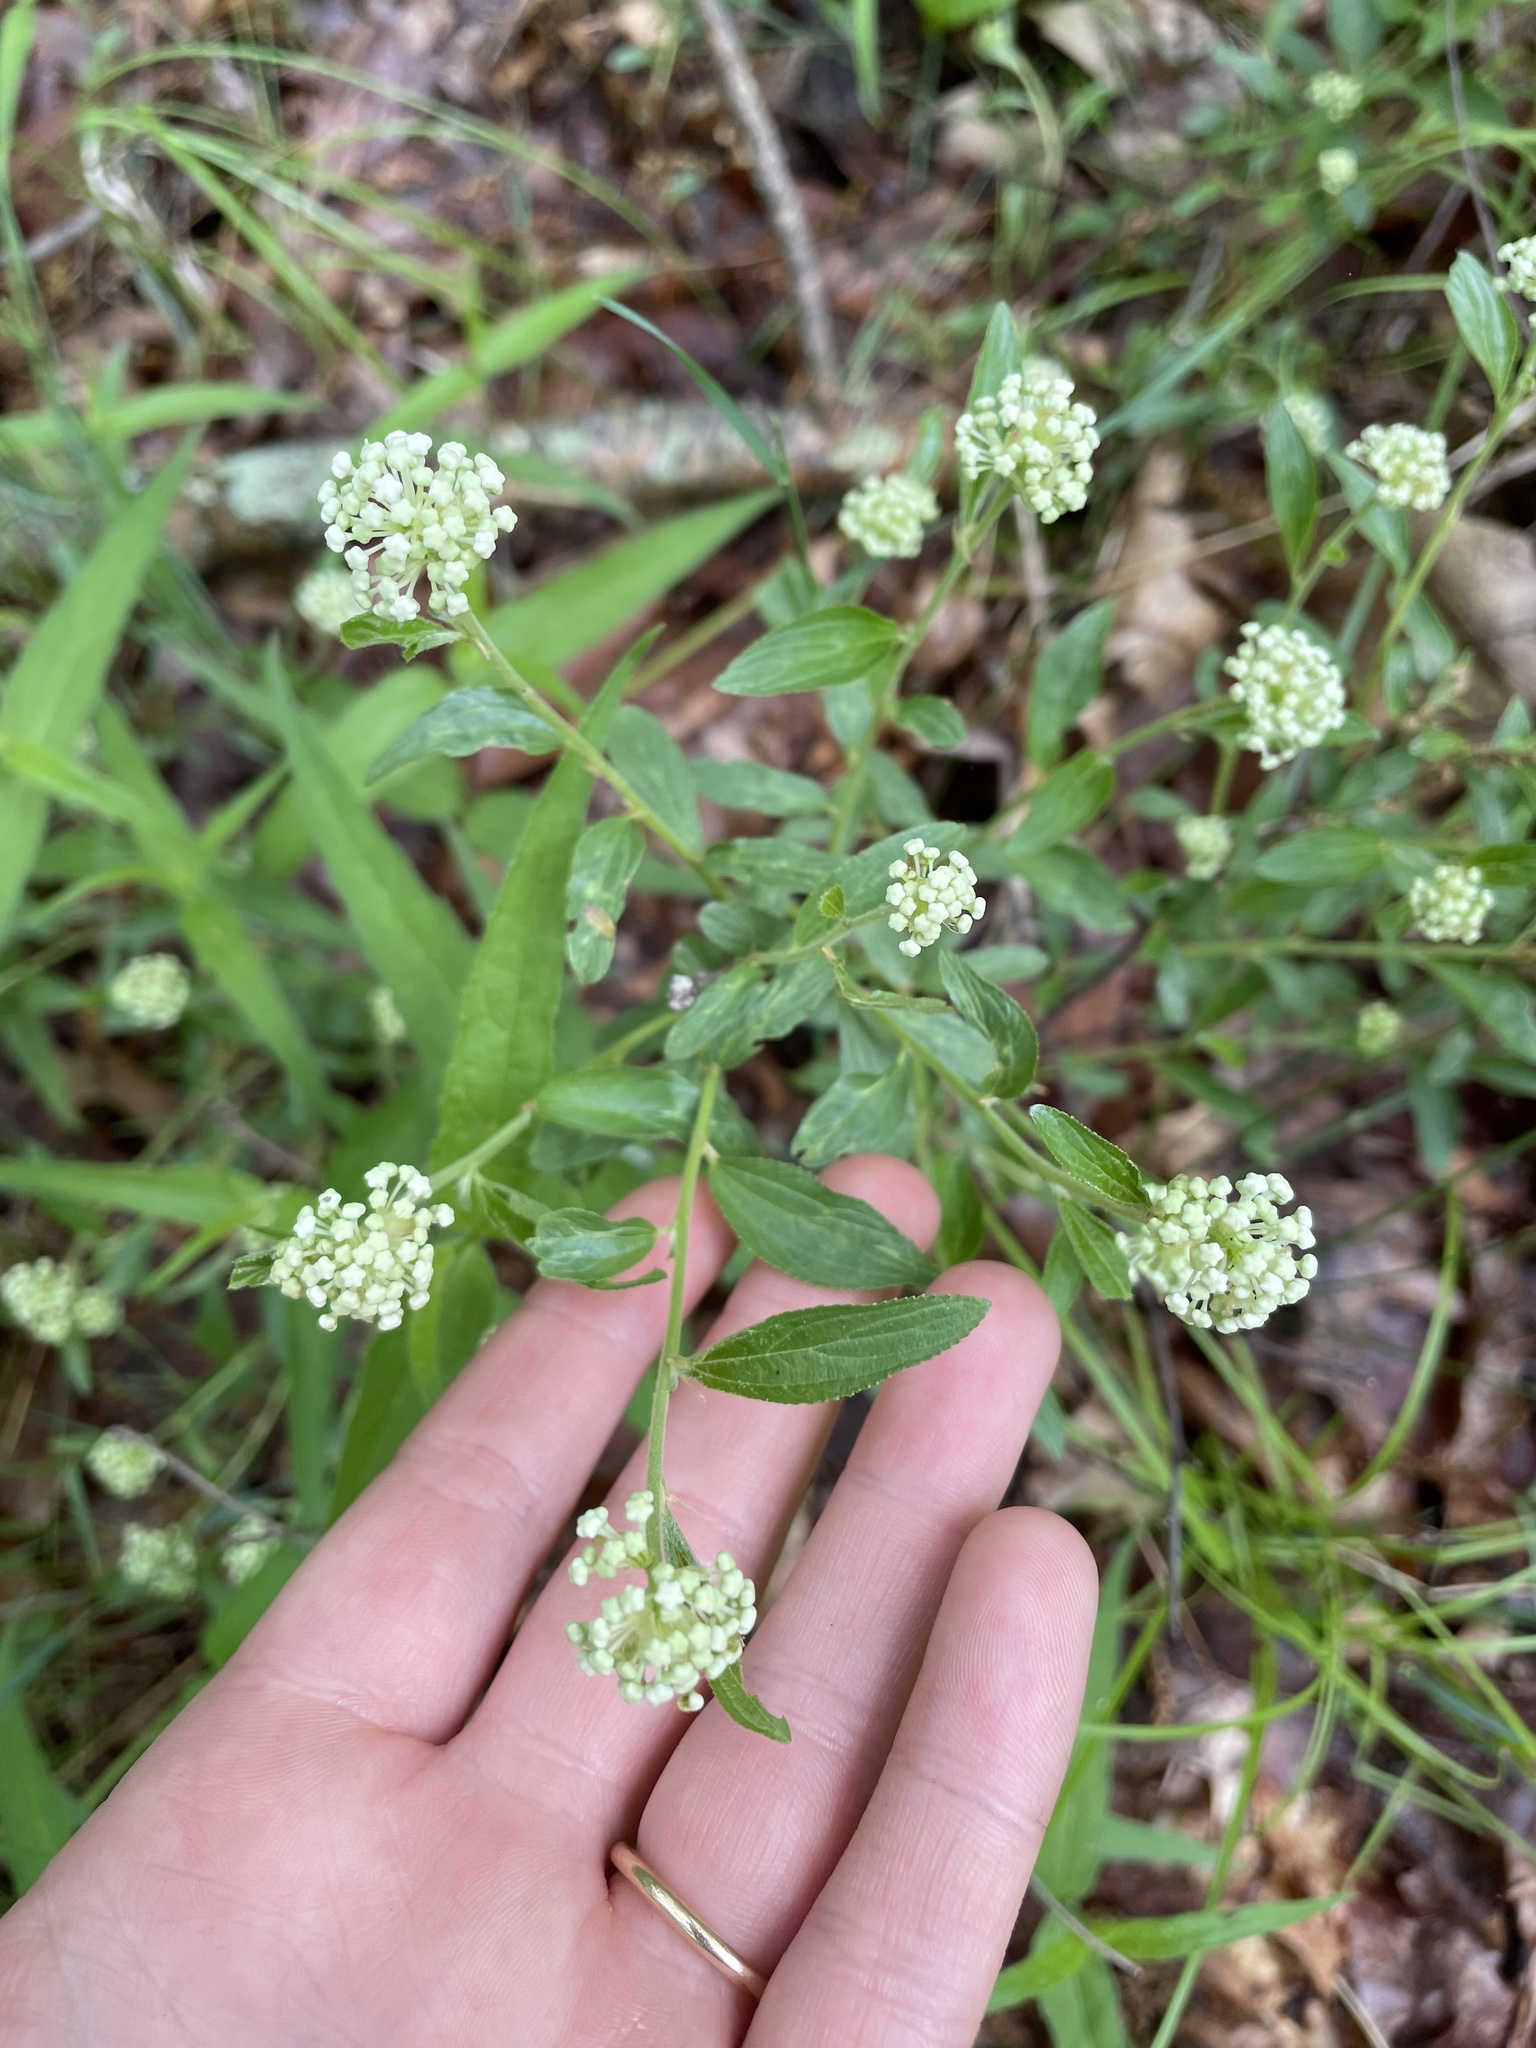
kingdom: Plantae
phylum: Tracheophyta
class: Magnoliopsida
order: Rosales
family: Rhamnaceae
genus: Ceanothus
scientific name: Ceanothus herbaceus
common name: Inland ceanothus
